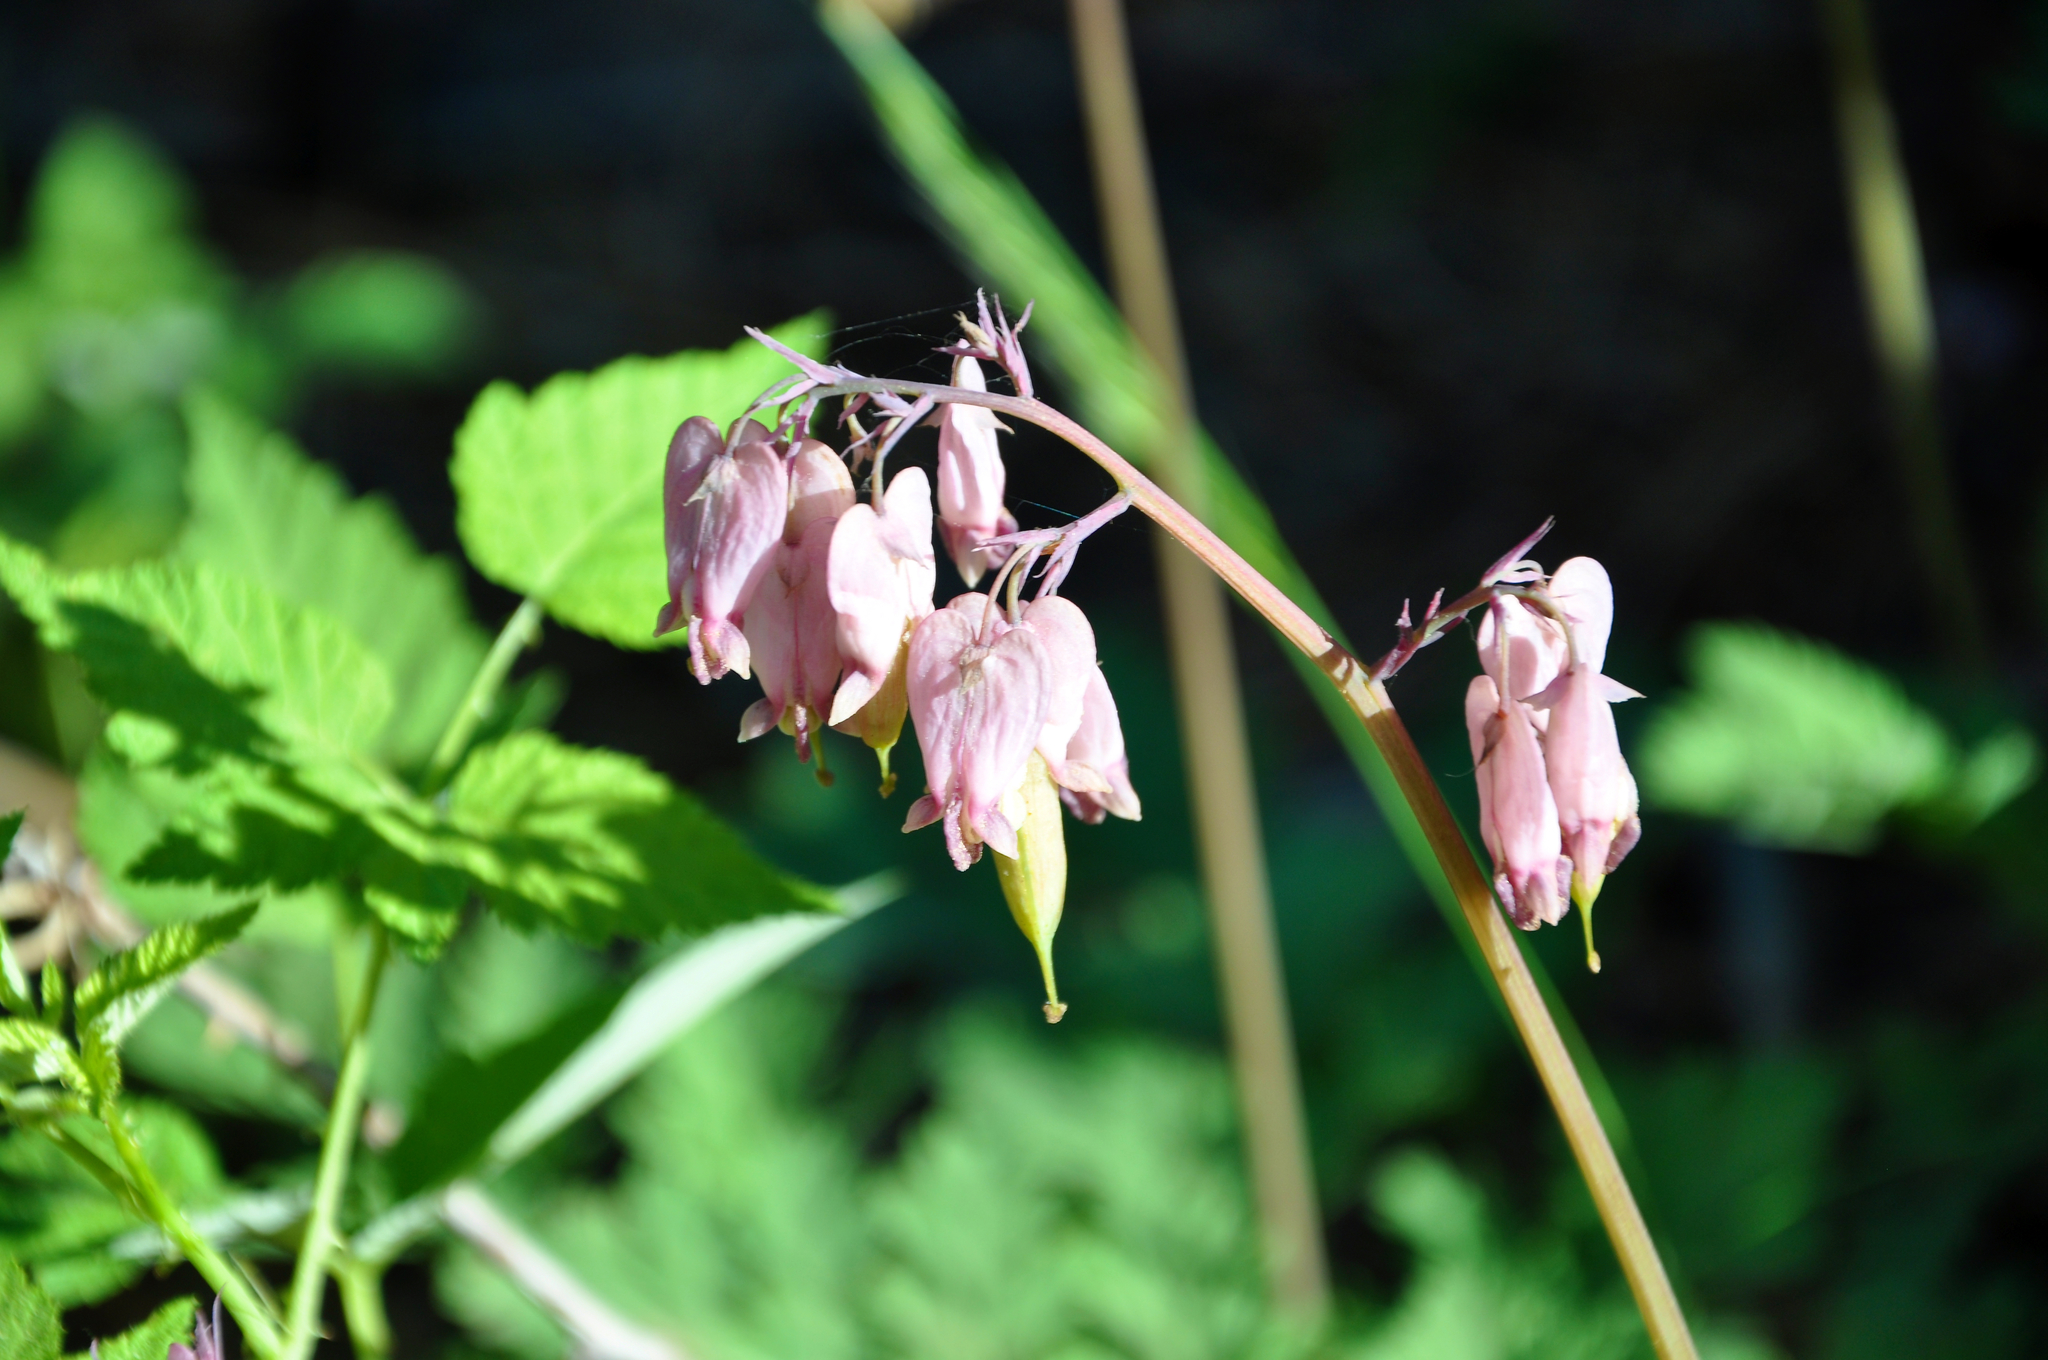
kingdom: Plantae
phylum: Tracheophyta
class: Magnoliopsida
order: Ranunculales
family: Papaveraceae
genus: Dicentra
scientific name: Dicentra formosa
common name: Bleeding-heart
